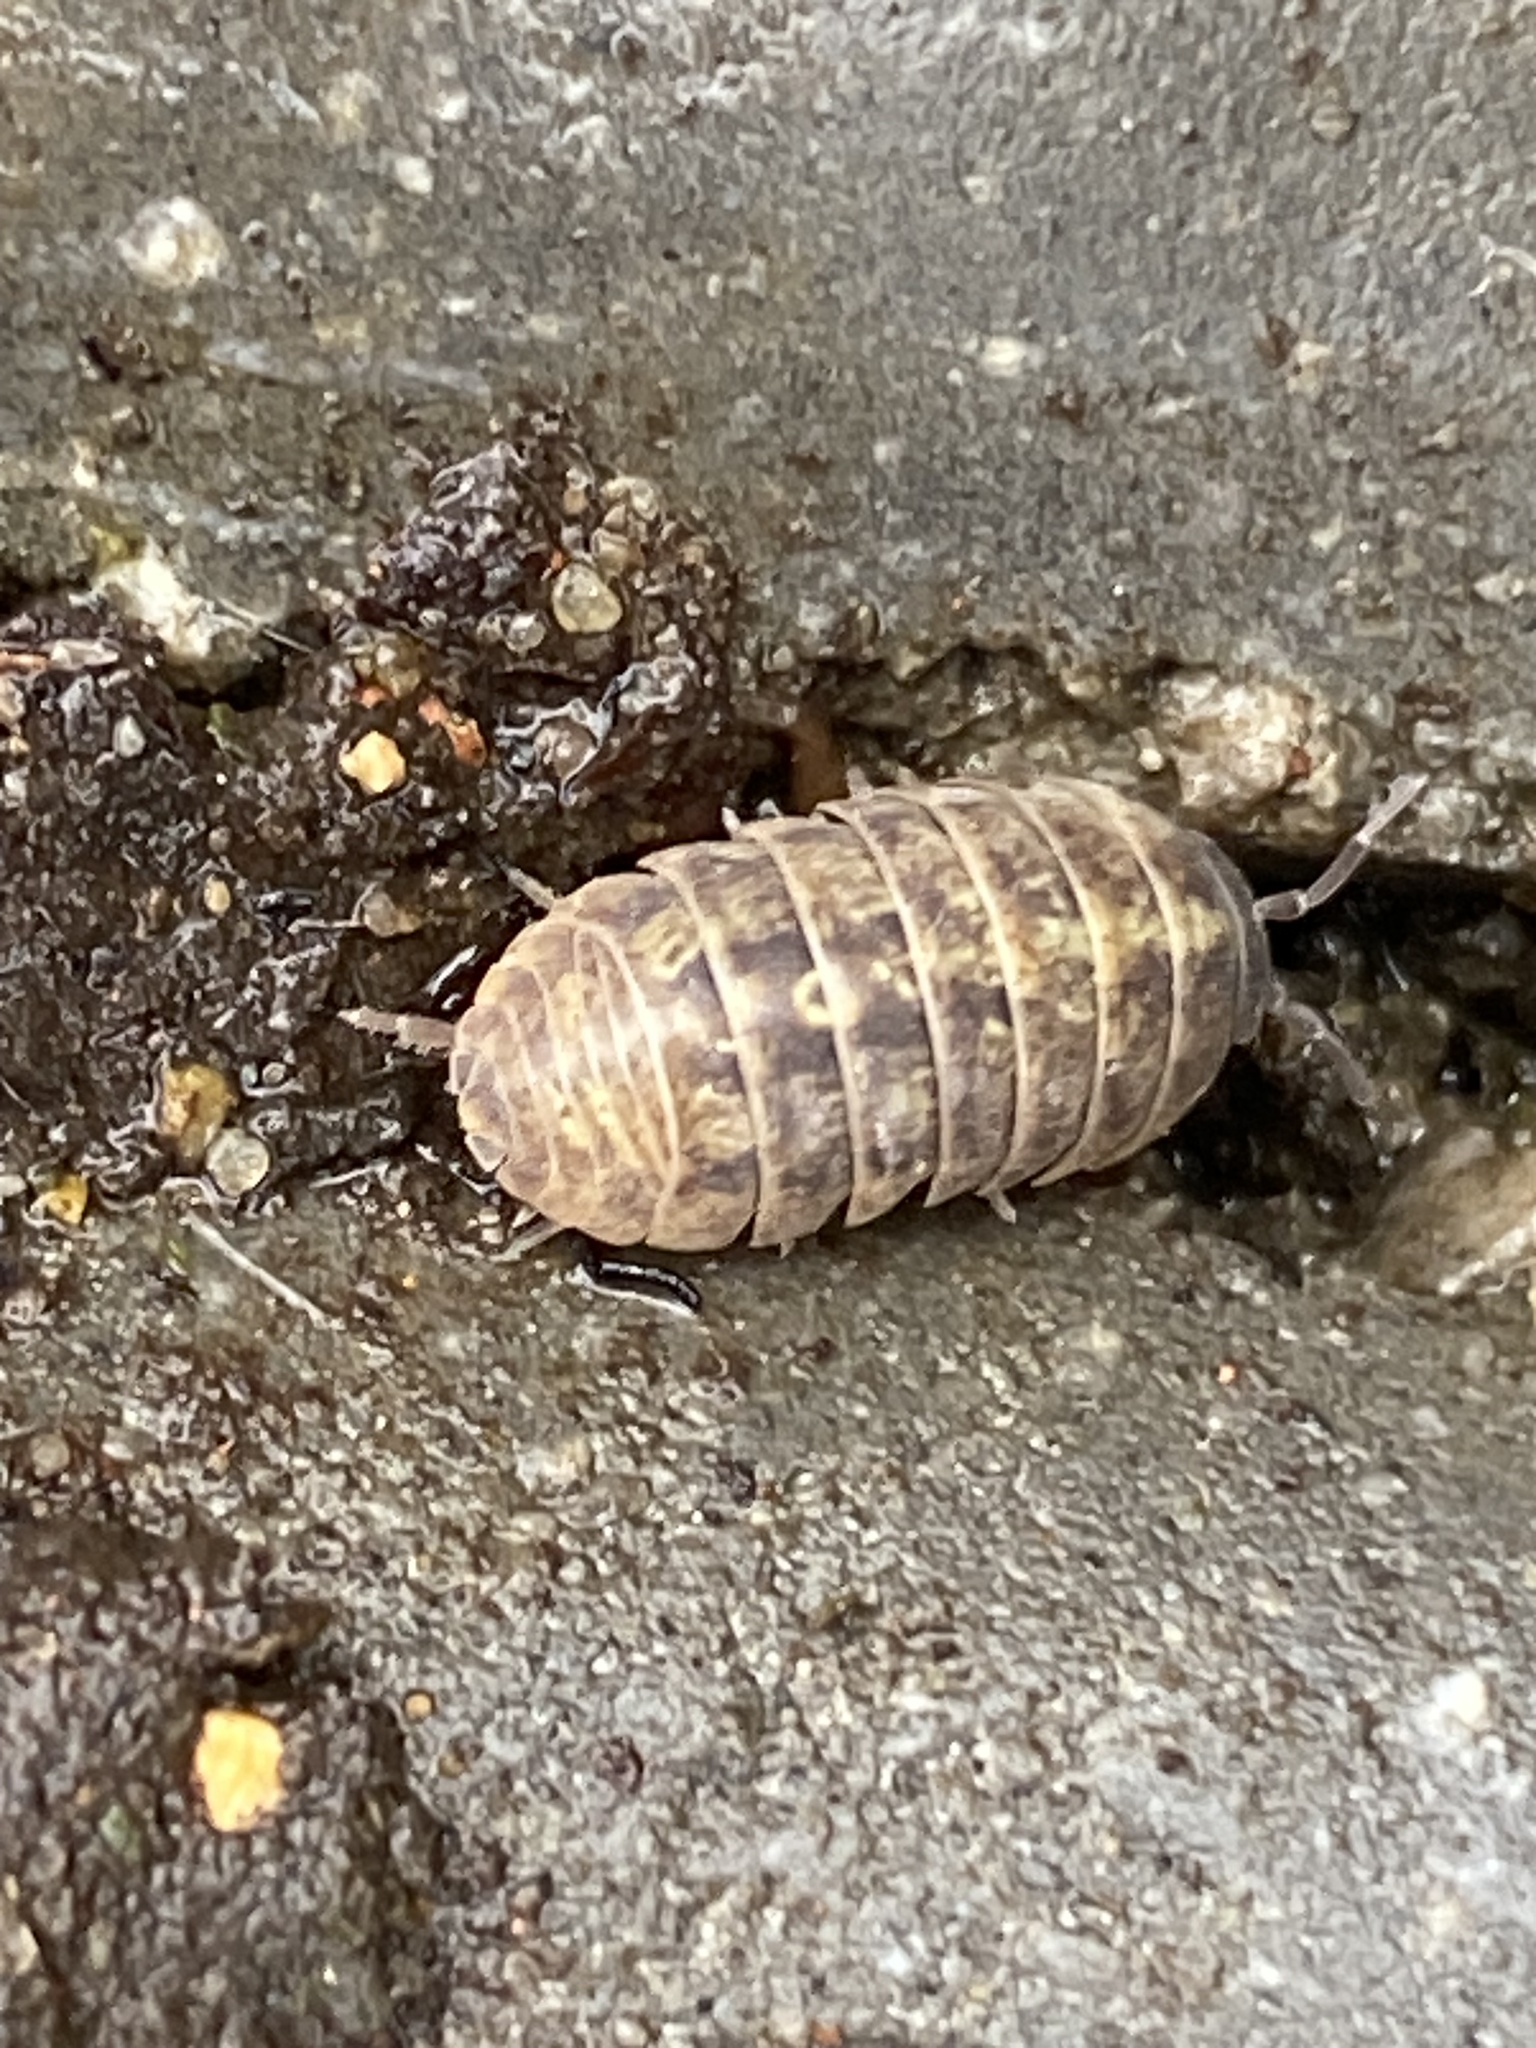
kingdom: Animalia
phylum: Arthropoda
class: Malacostraca
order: Isopoda
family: Armadillidiidae
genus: Armadillidium
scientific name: Armadillidium vulgare
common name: Common pill woodlouse
